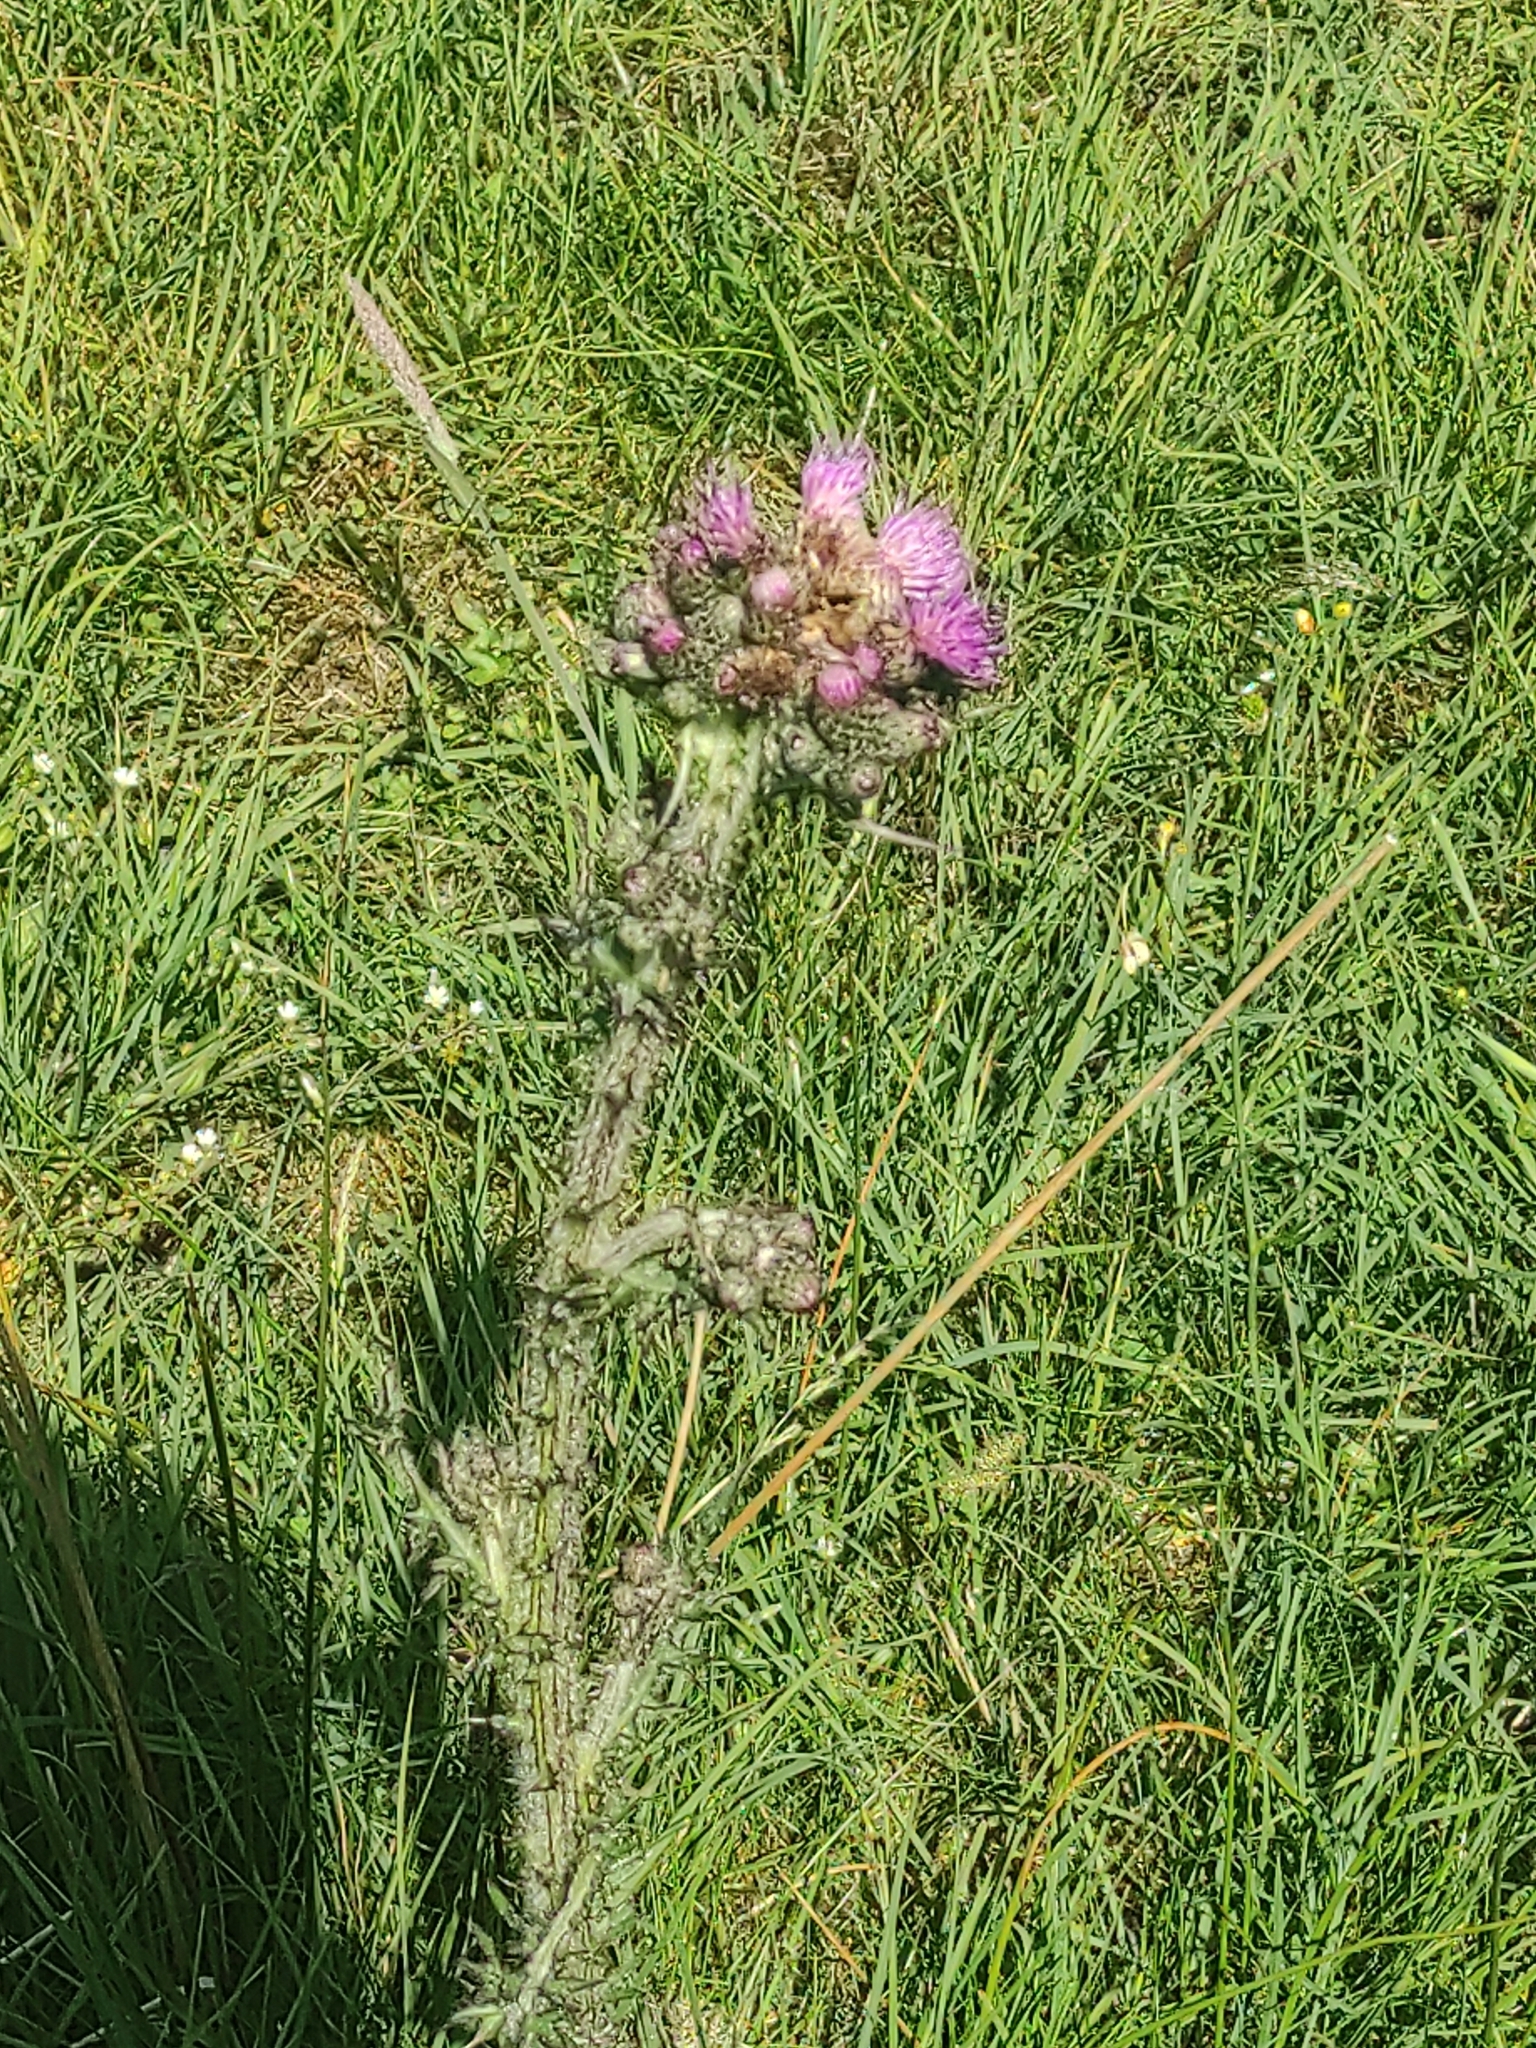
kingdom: Plantae
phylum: Tracheophyta
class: Magnoliopsida
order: Asterales
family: Asteraceae
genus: Cirsium
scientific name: Cirsium palustre
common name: Marsh thistle
